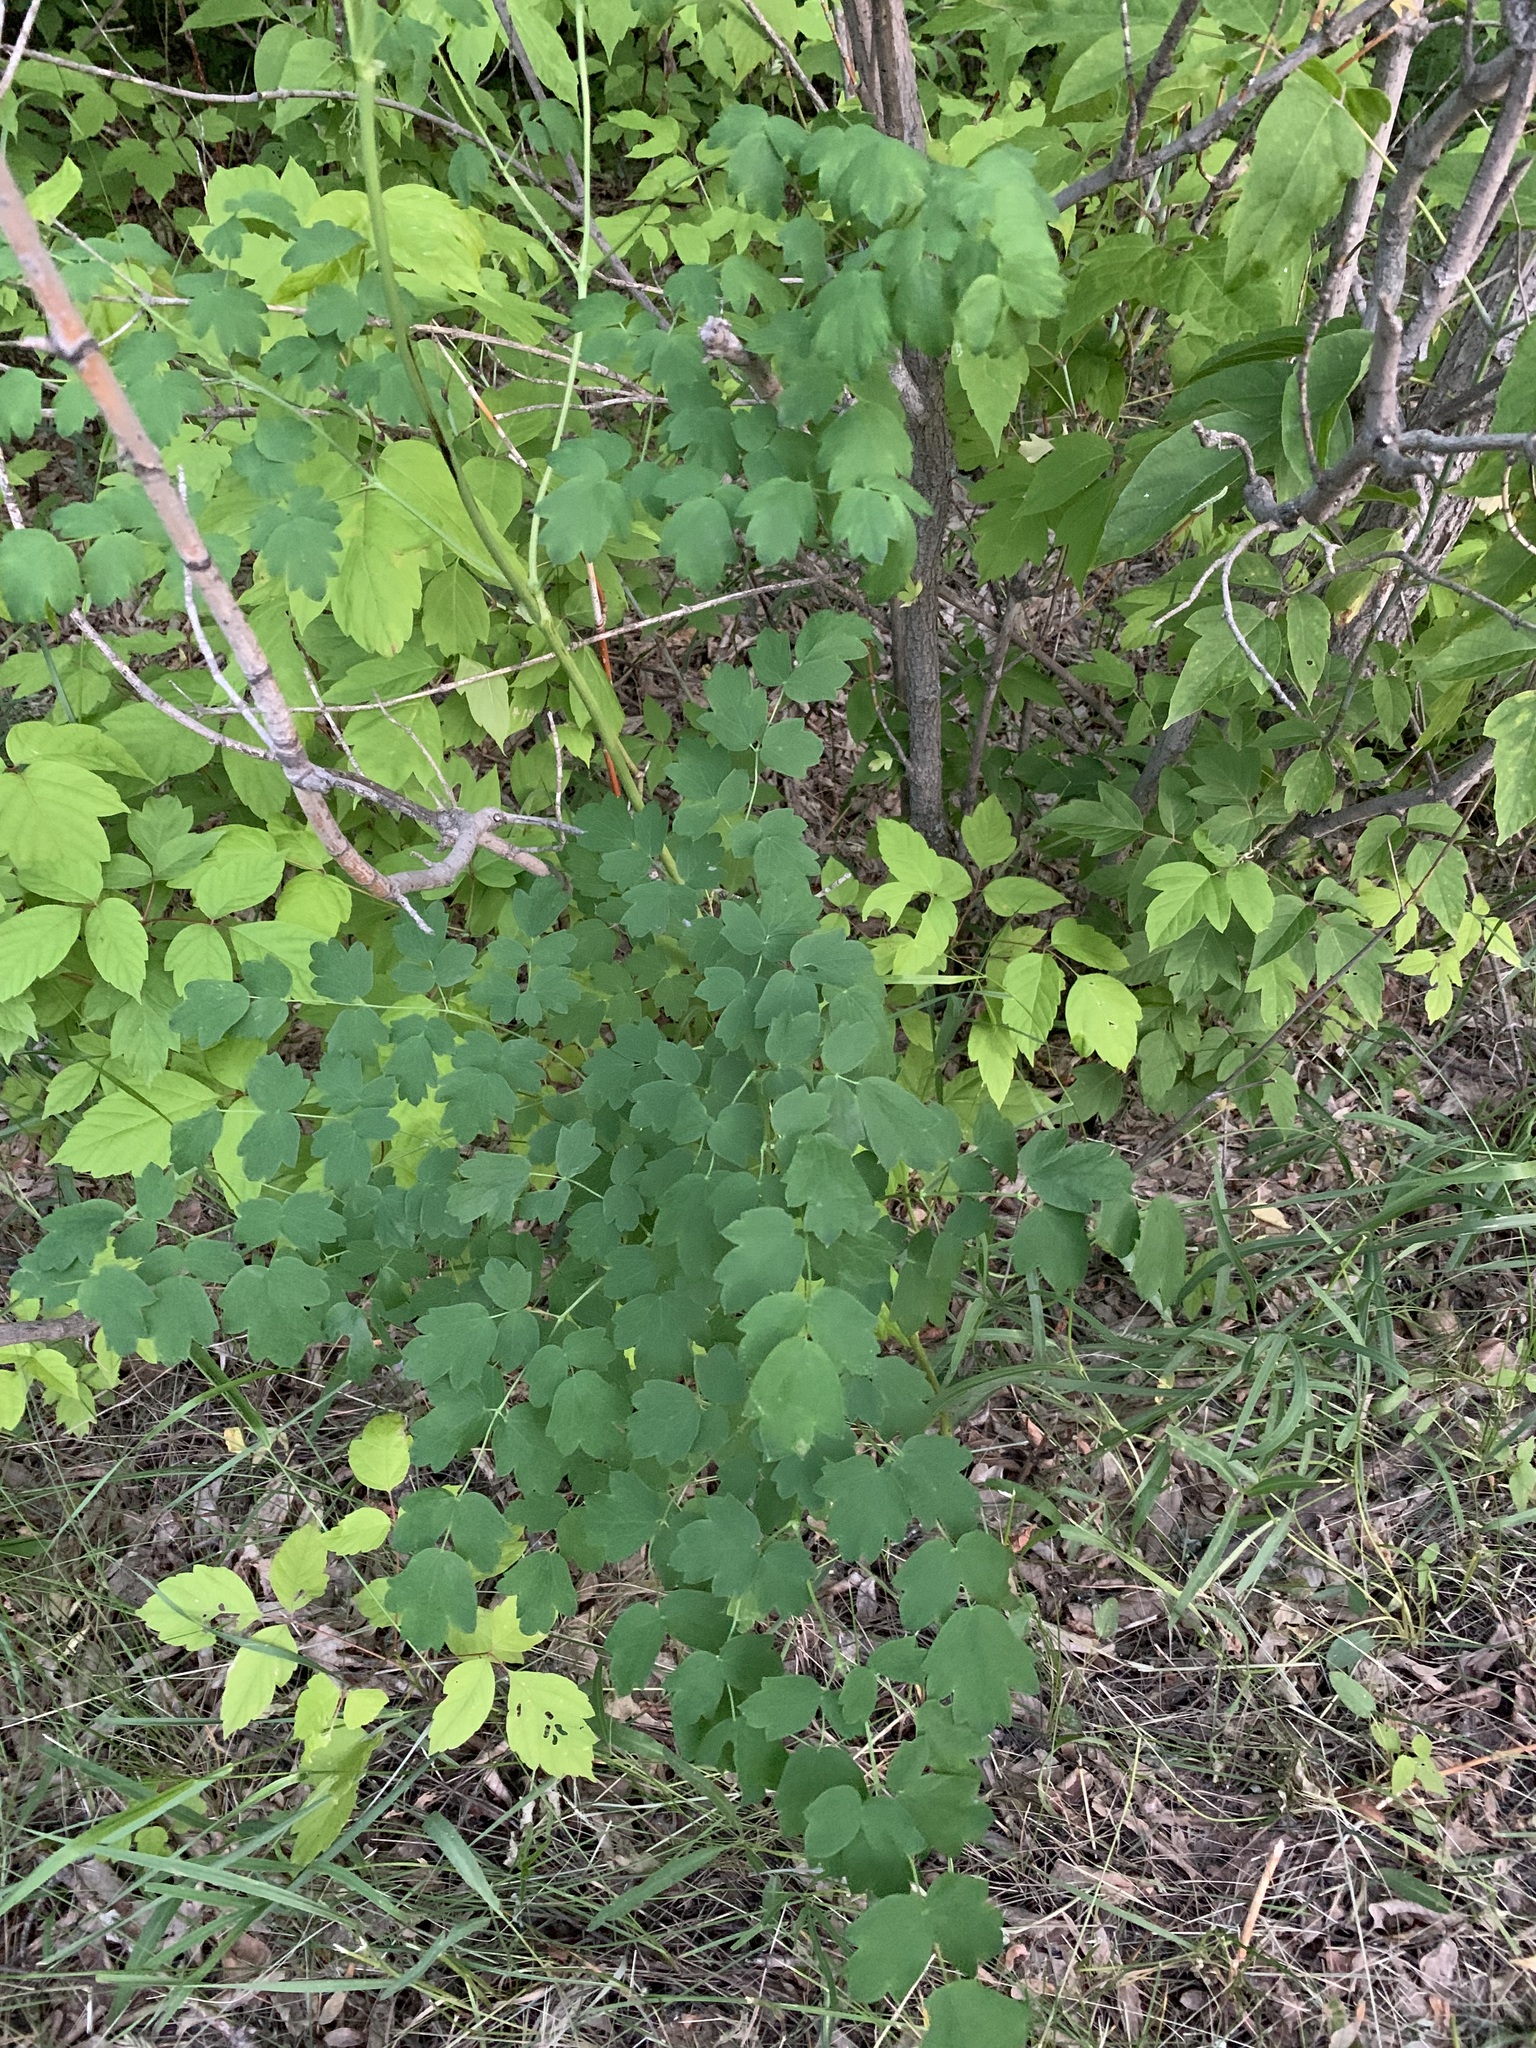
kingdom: Plantae
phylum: Tracheophyta
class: Magnoliopsida
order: Ranunculales
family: Ranunculaceae
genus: Thalictrum
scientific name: Thalictrum minus
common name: Lesser meadow-rue
